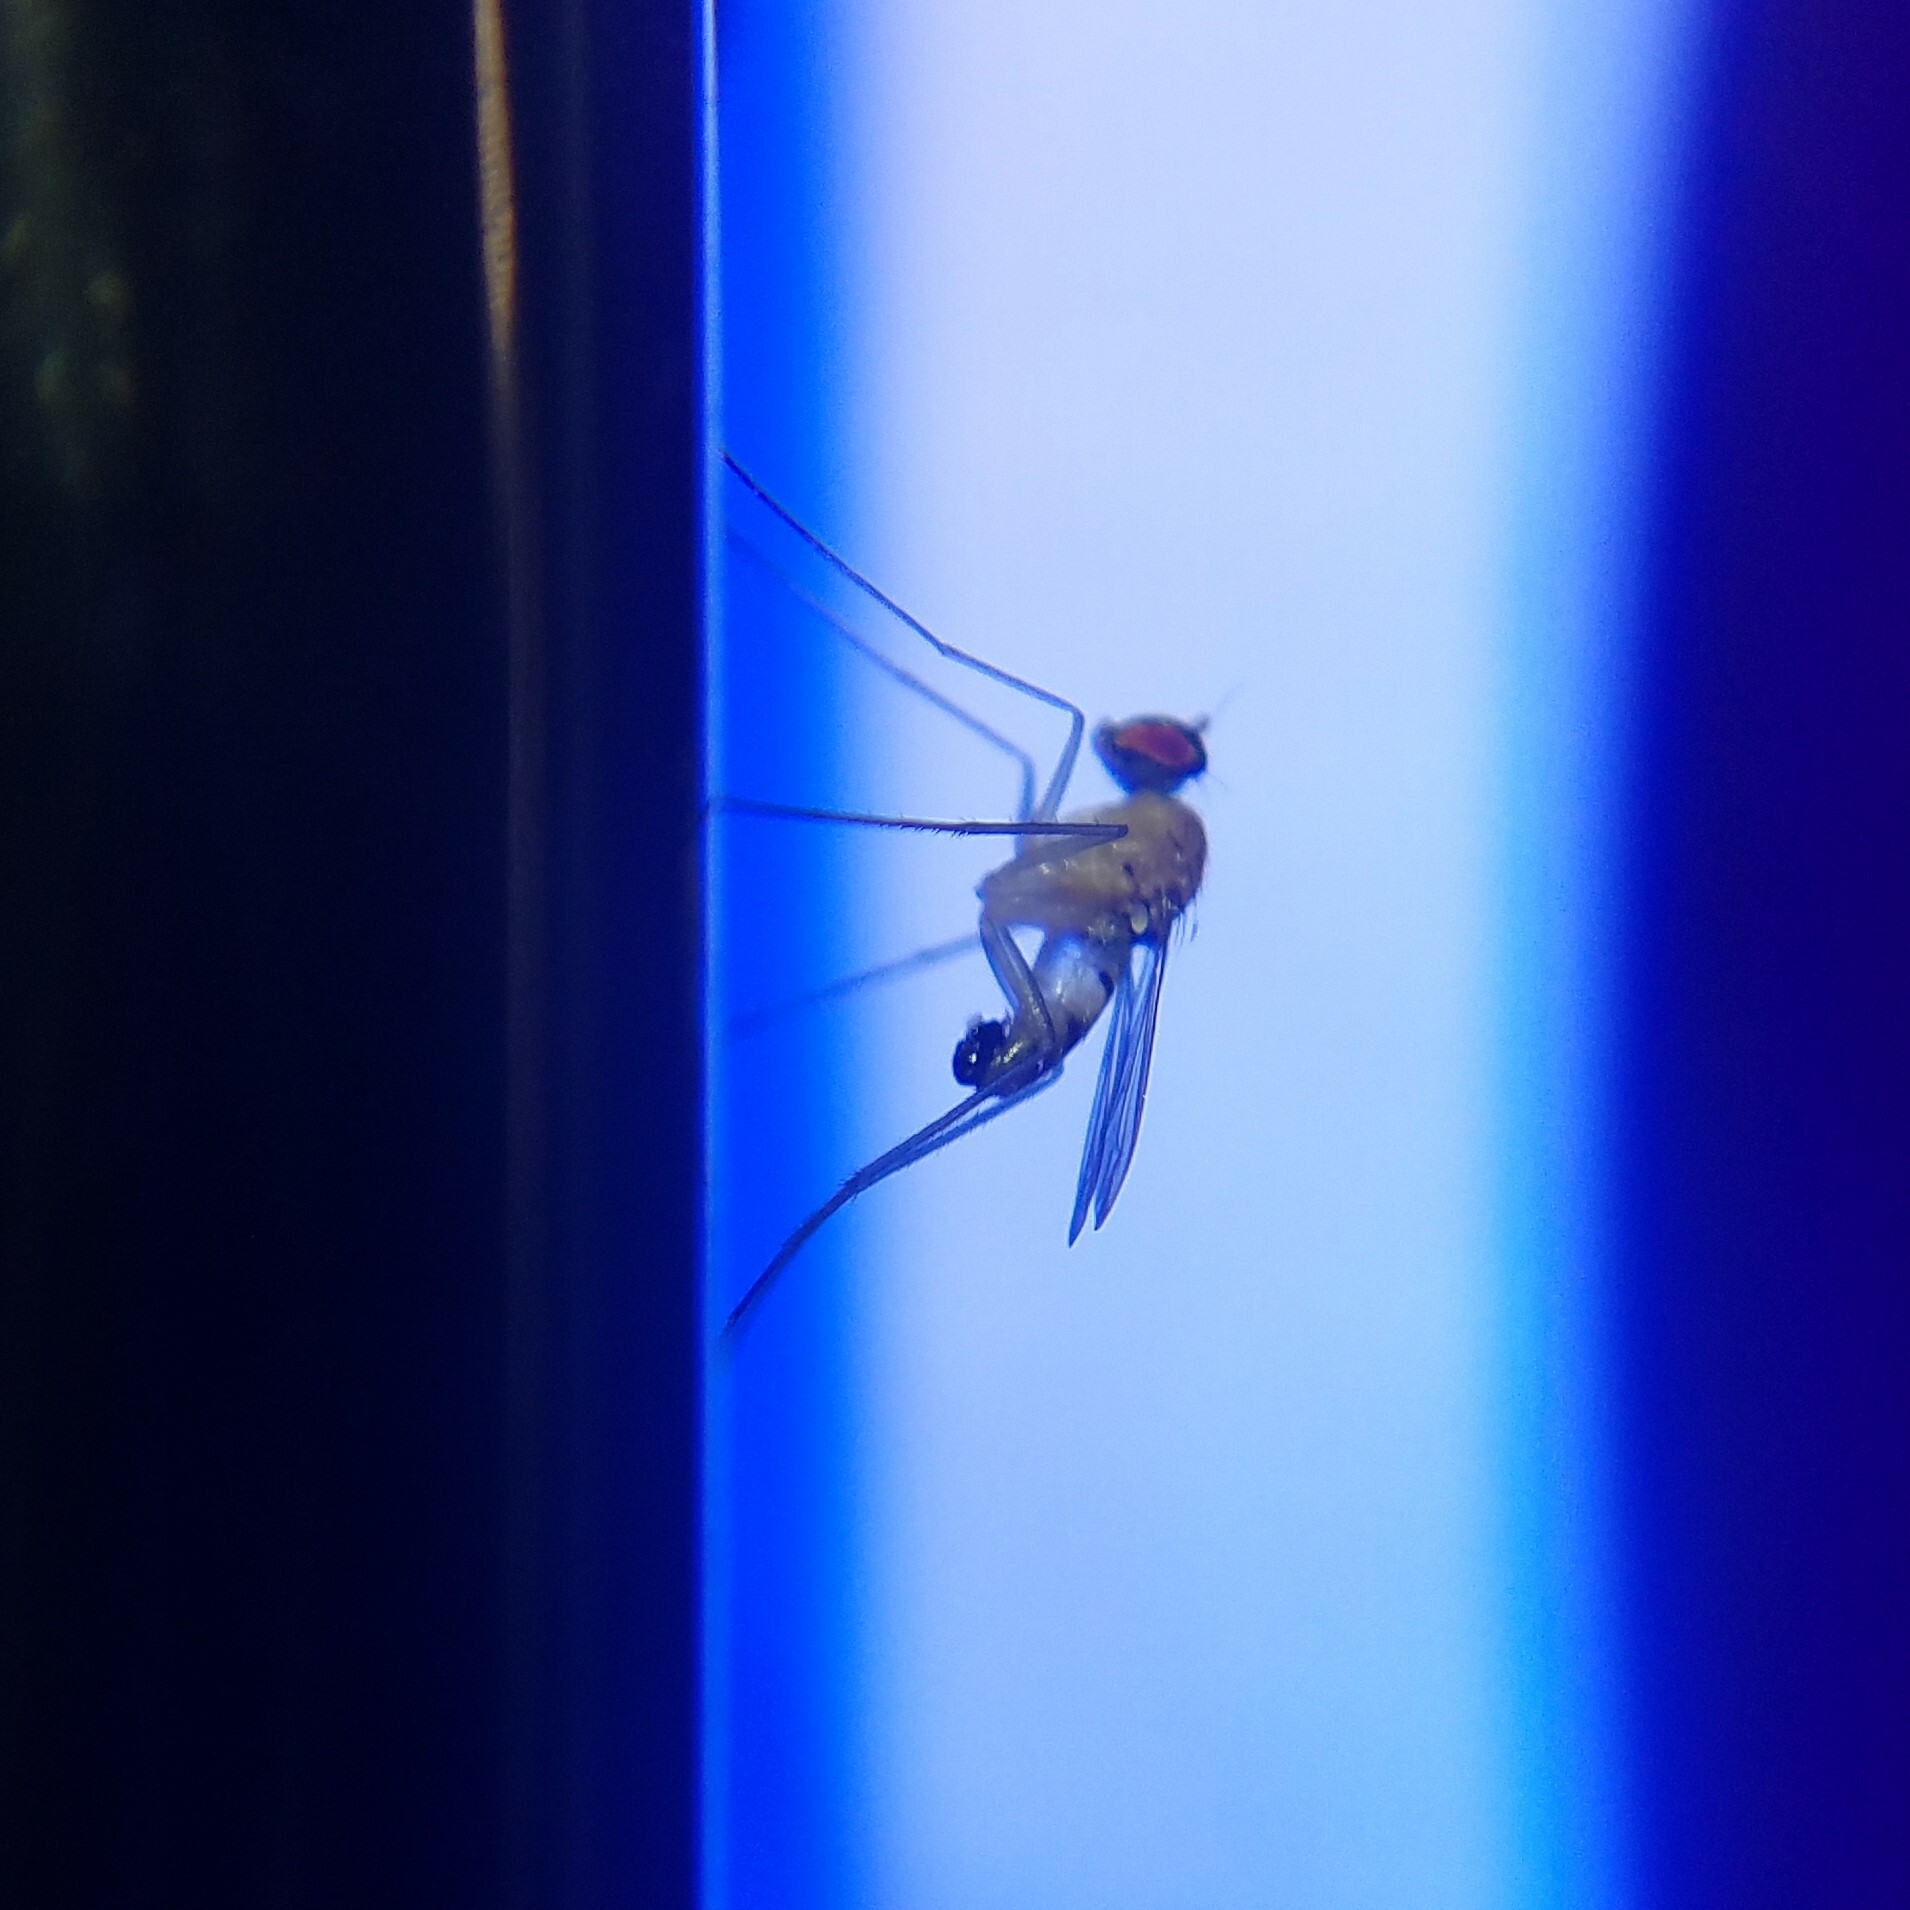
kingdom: Animalia
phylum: Arthropoda
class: Insecta
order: Diptera
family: Dolichopodidae
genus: Neurigona
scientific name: Neurigona rubella
